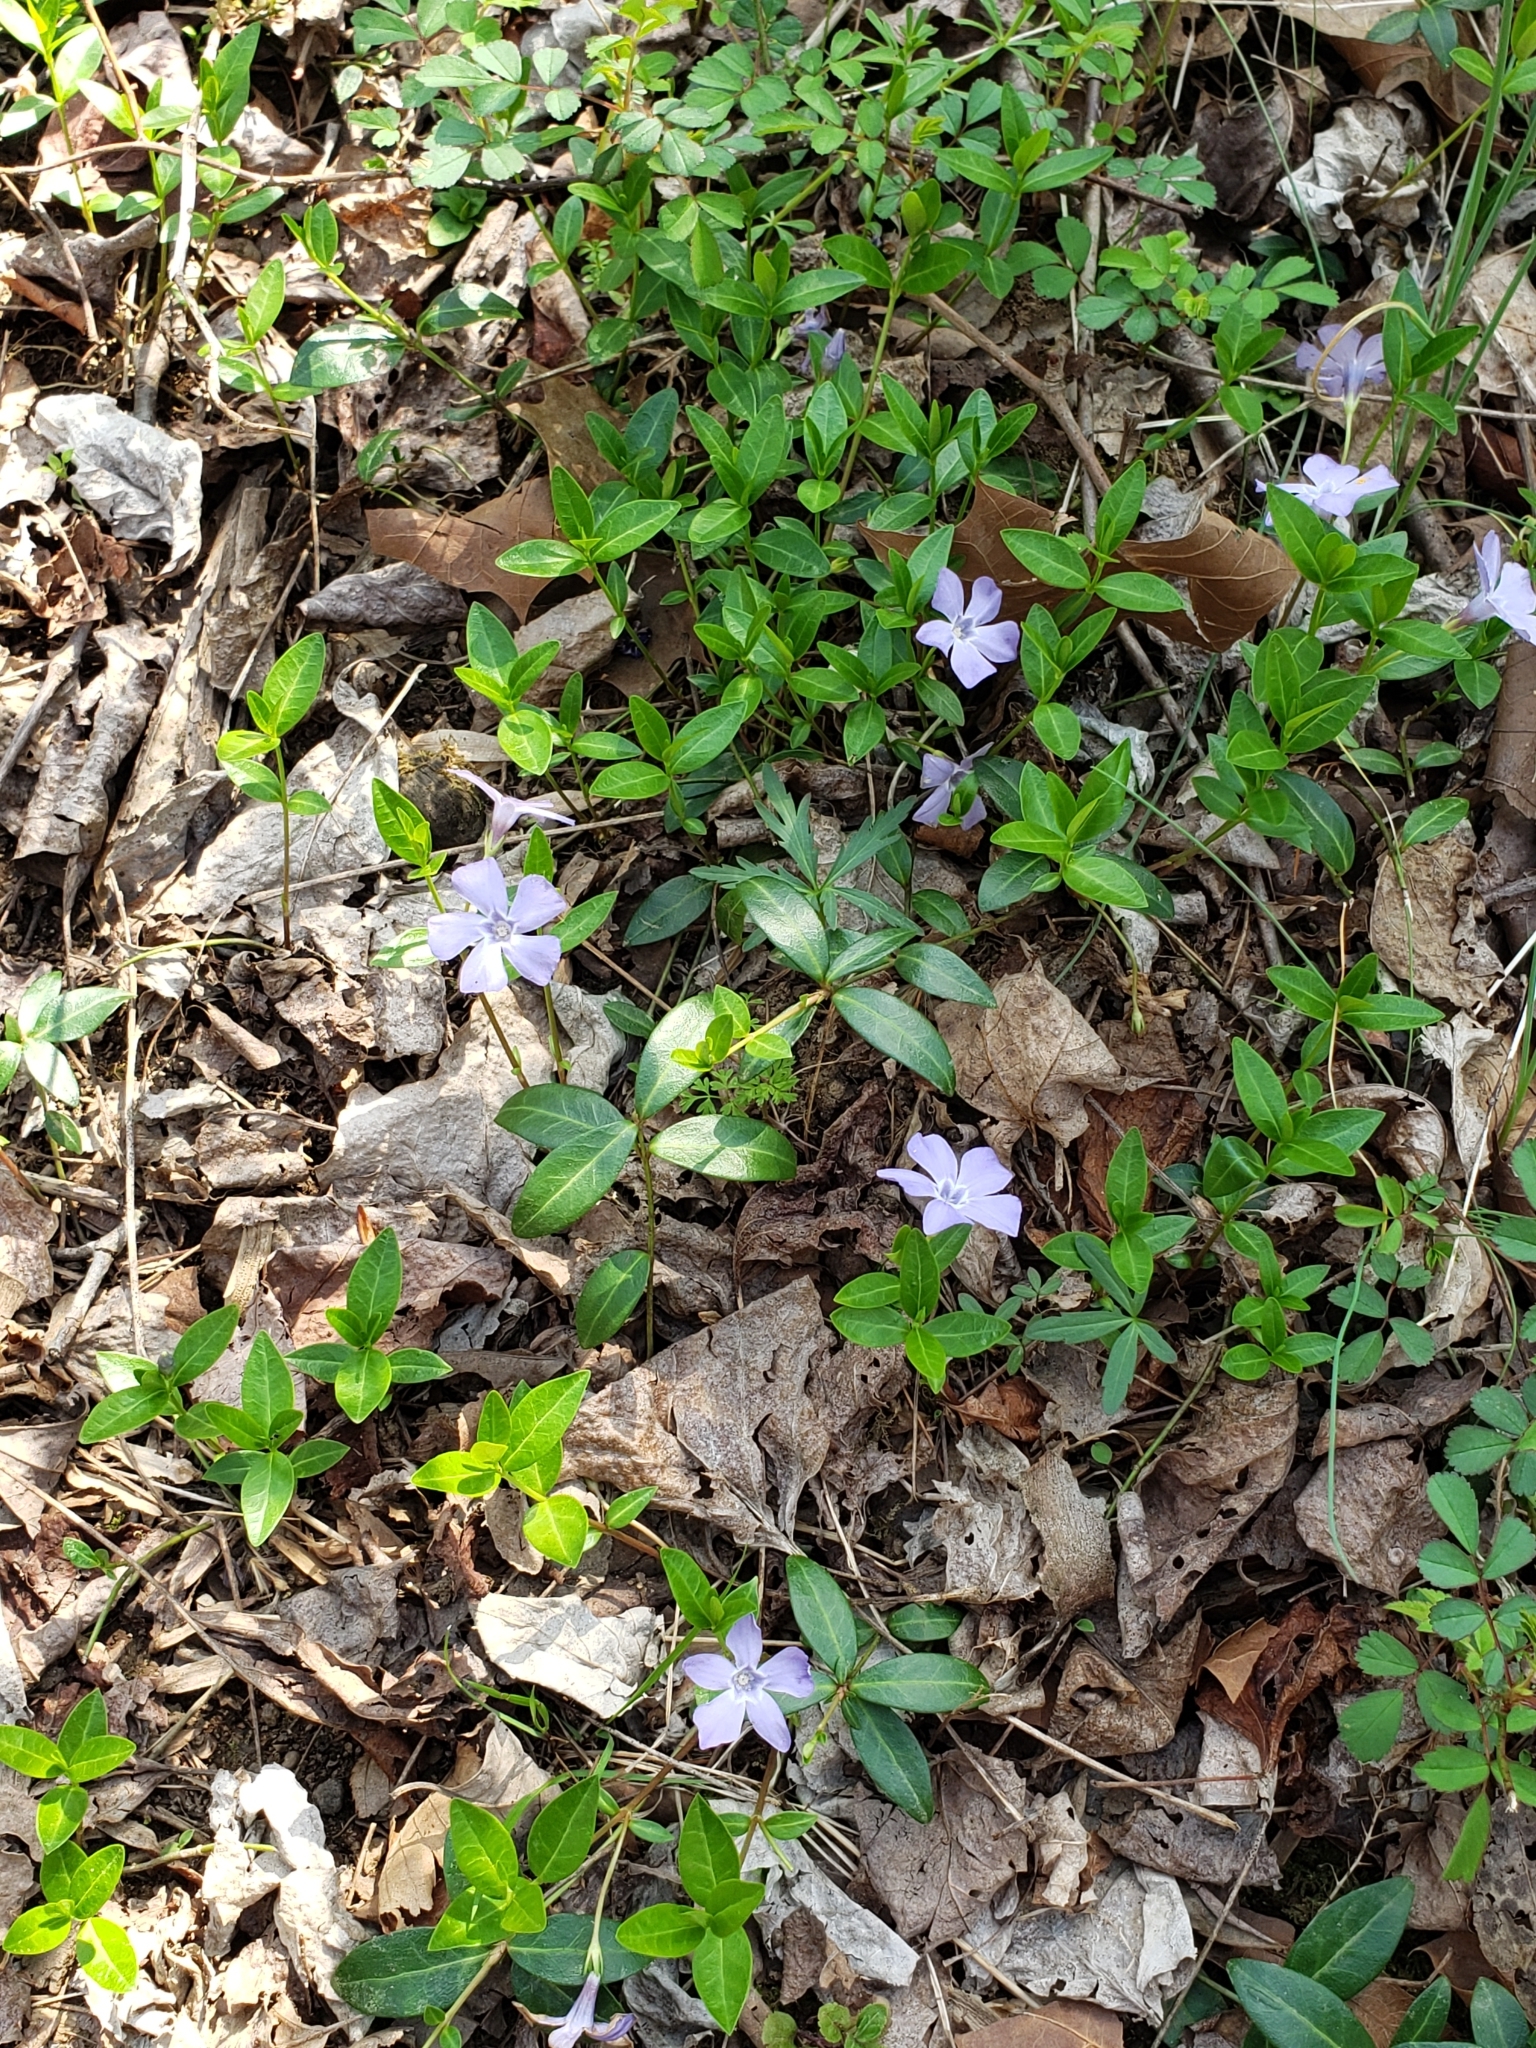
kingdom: Plantae
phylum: Tracheophyta
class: Magnoliopsida
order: Gentianales
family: Apocynaceae
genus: Vinca
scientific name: Vinca minor
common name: Lesser periwinkle
